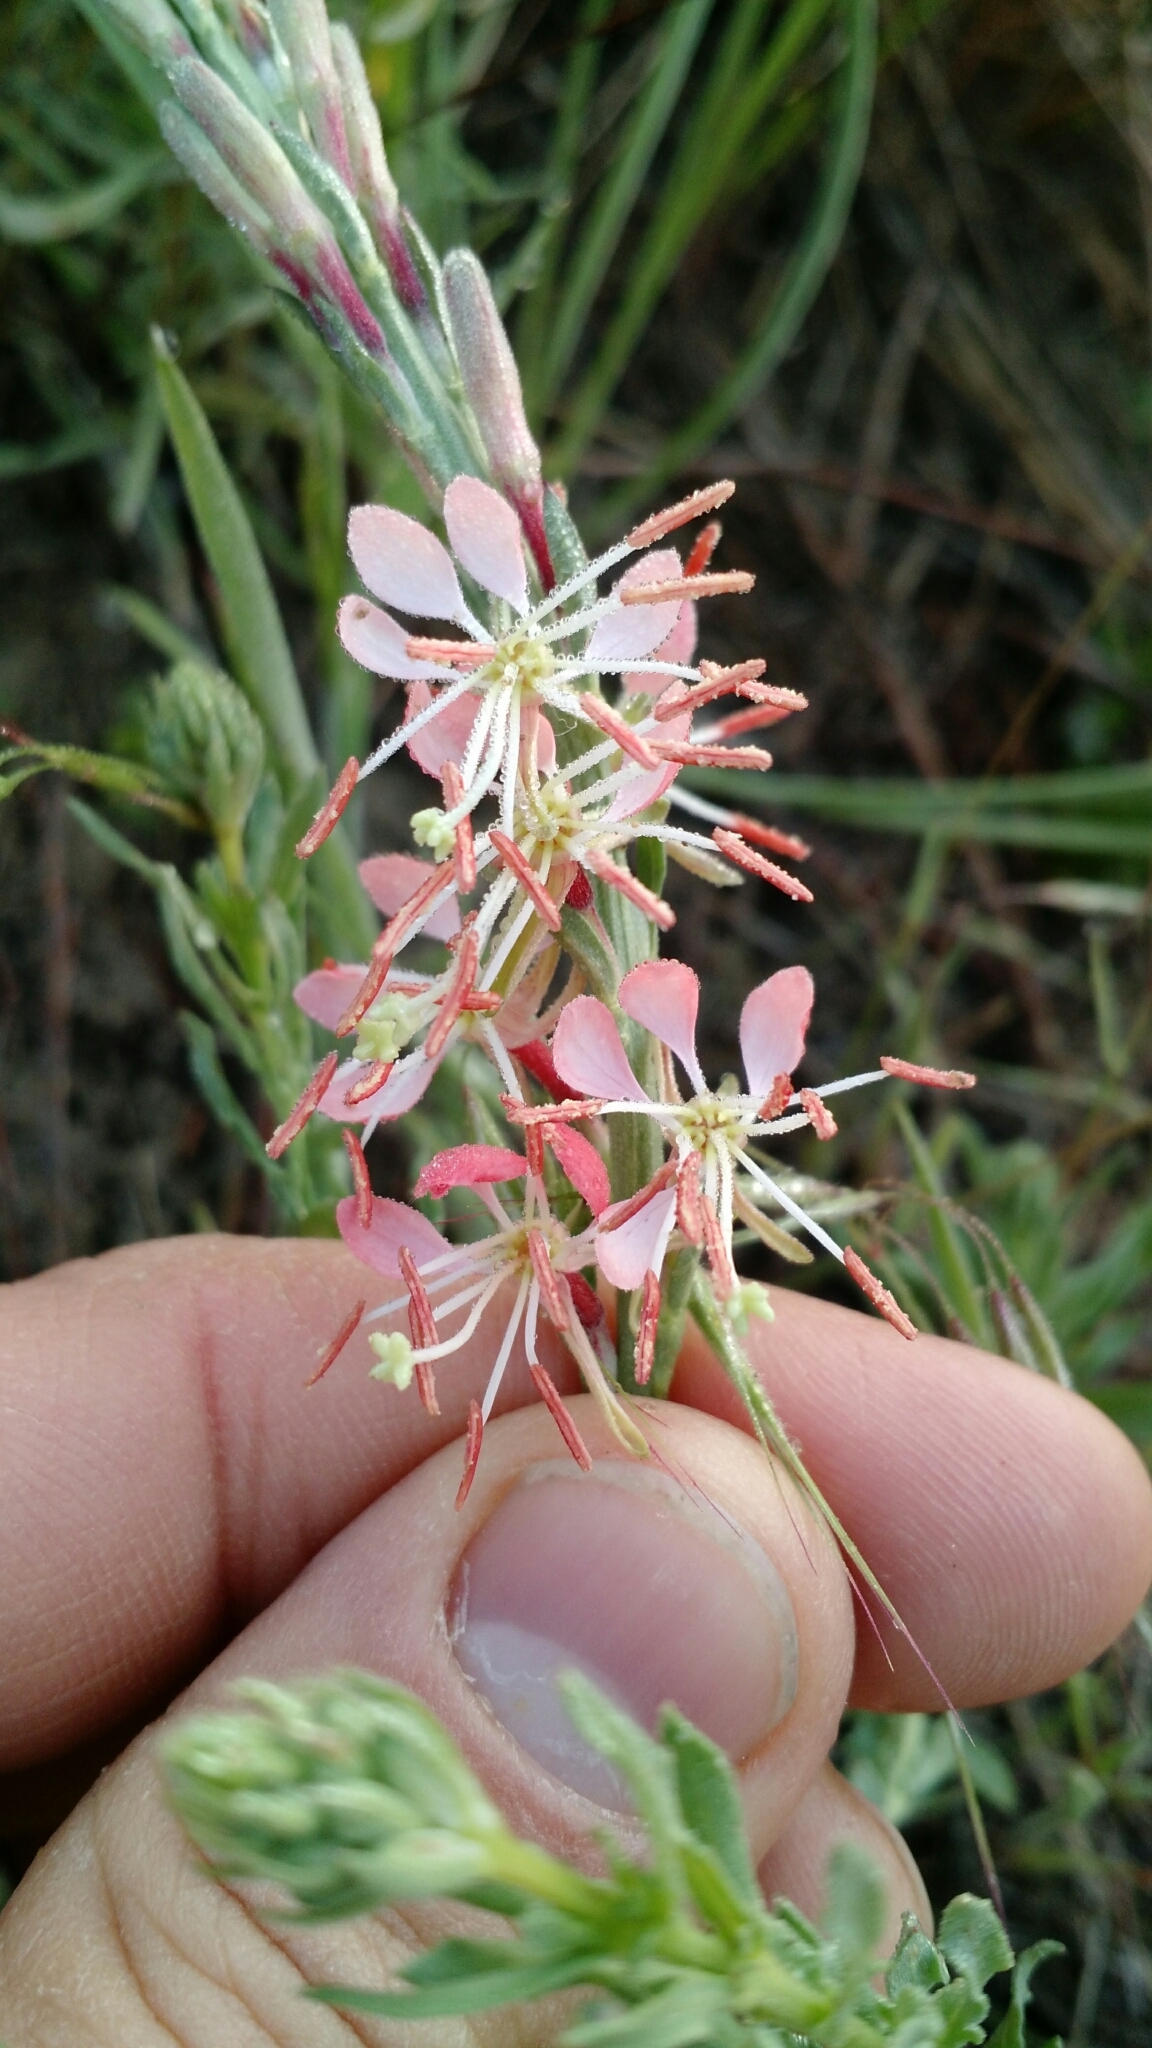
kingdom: Plantae
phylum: Tracheophyta
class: Magnoliopsida
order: Myrtales
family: Onagraceae
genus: Oenothera
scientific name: Oenothera suffrutescens
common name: Scarlet beeblossom
